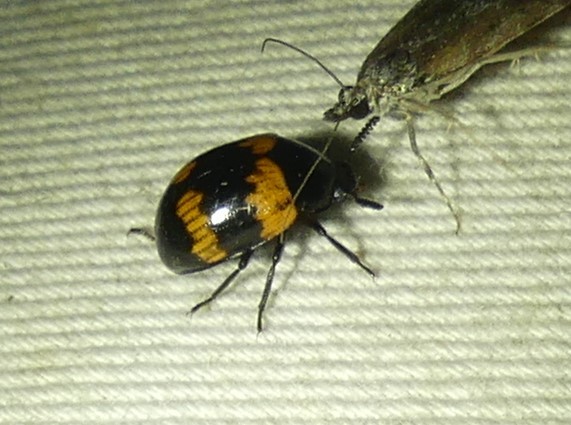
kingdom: Animalia
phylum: Arthropoda
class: Insecta
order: Coleoptera
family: Tenebrionidae
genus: Diaperis
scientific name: Diaperis boleti
